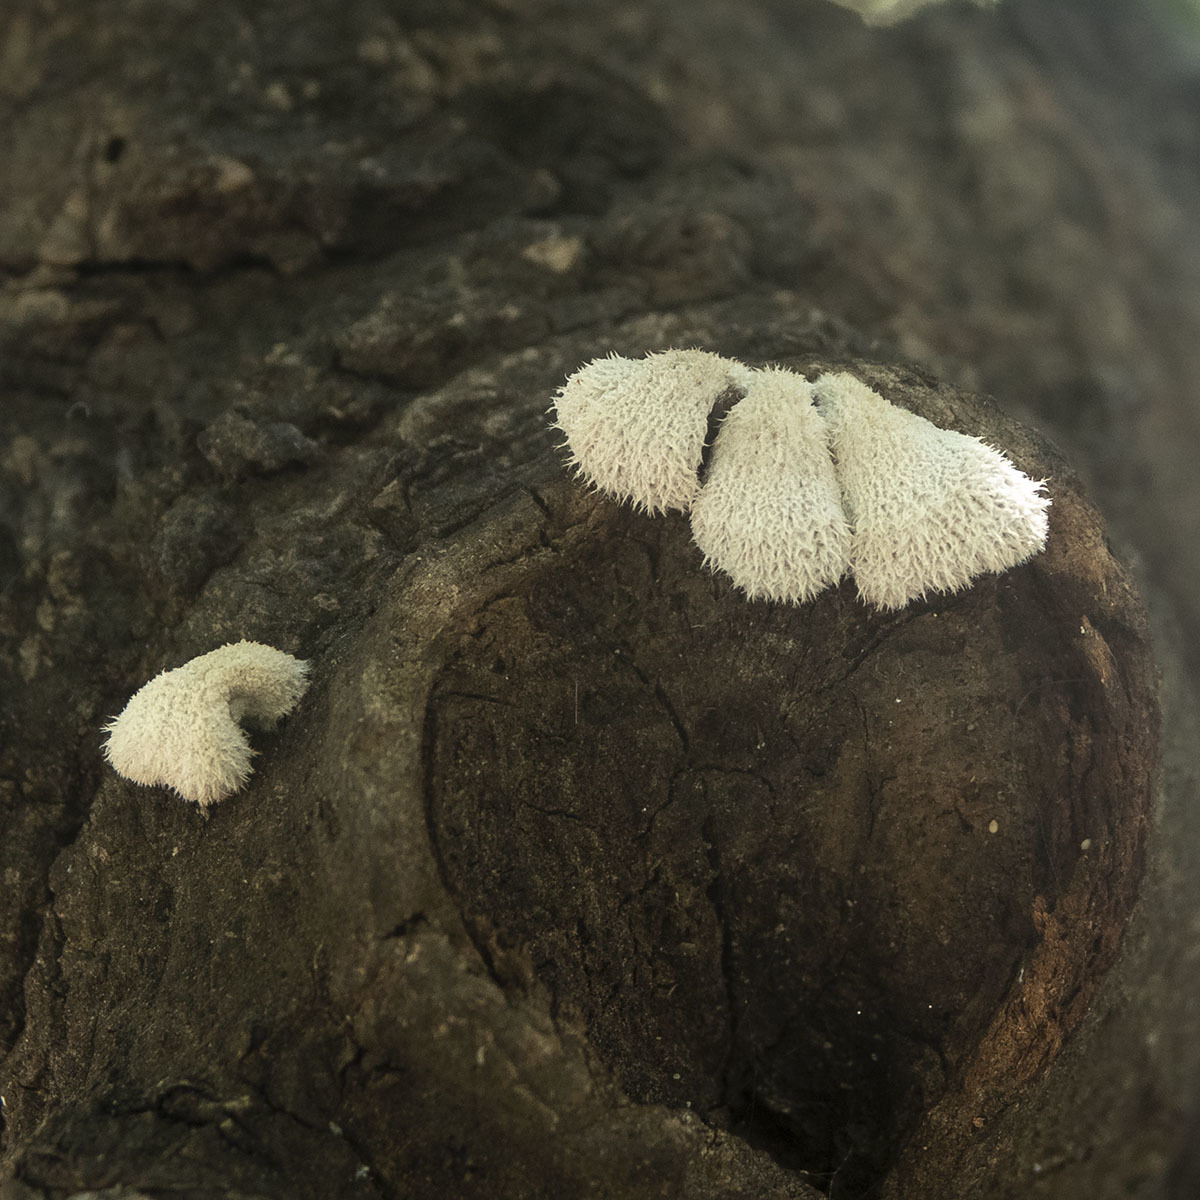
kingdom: Fungi
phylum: Basidiomycota
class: Agaricomycetes
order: Agaricales
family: Schizophyllaceae
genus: Schizophyllum
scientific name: Schizophyllum commune
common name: Common porecrust
